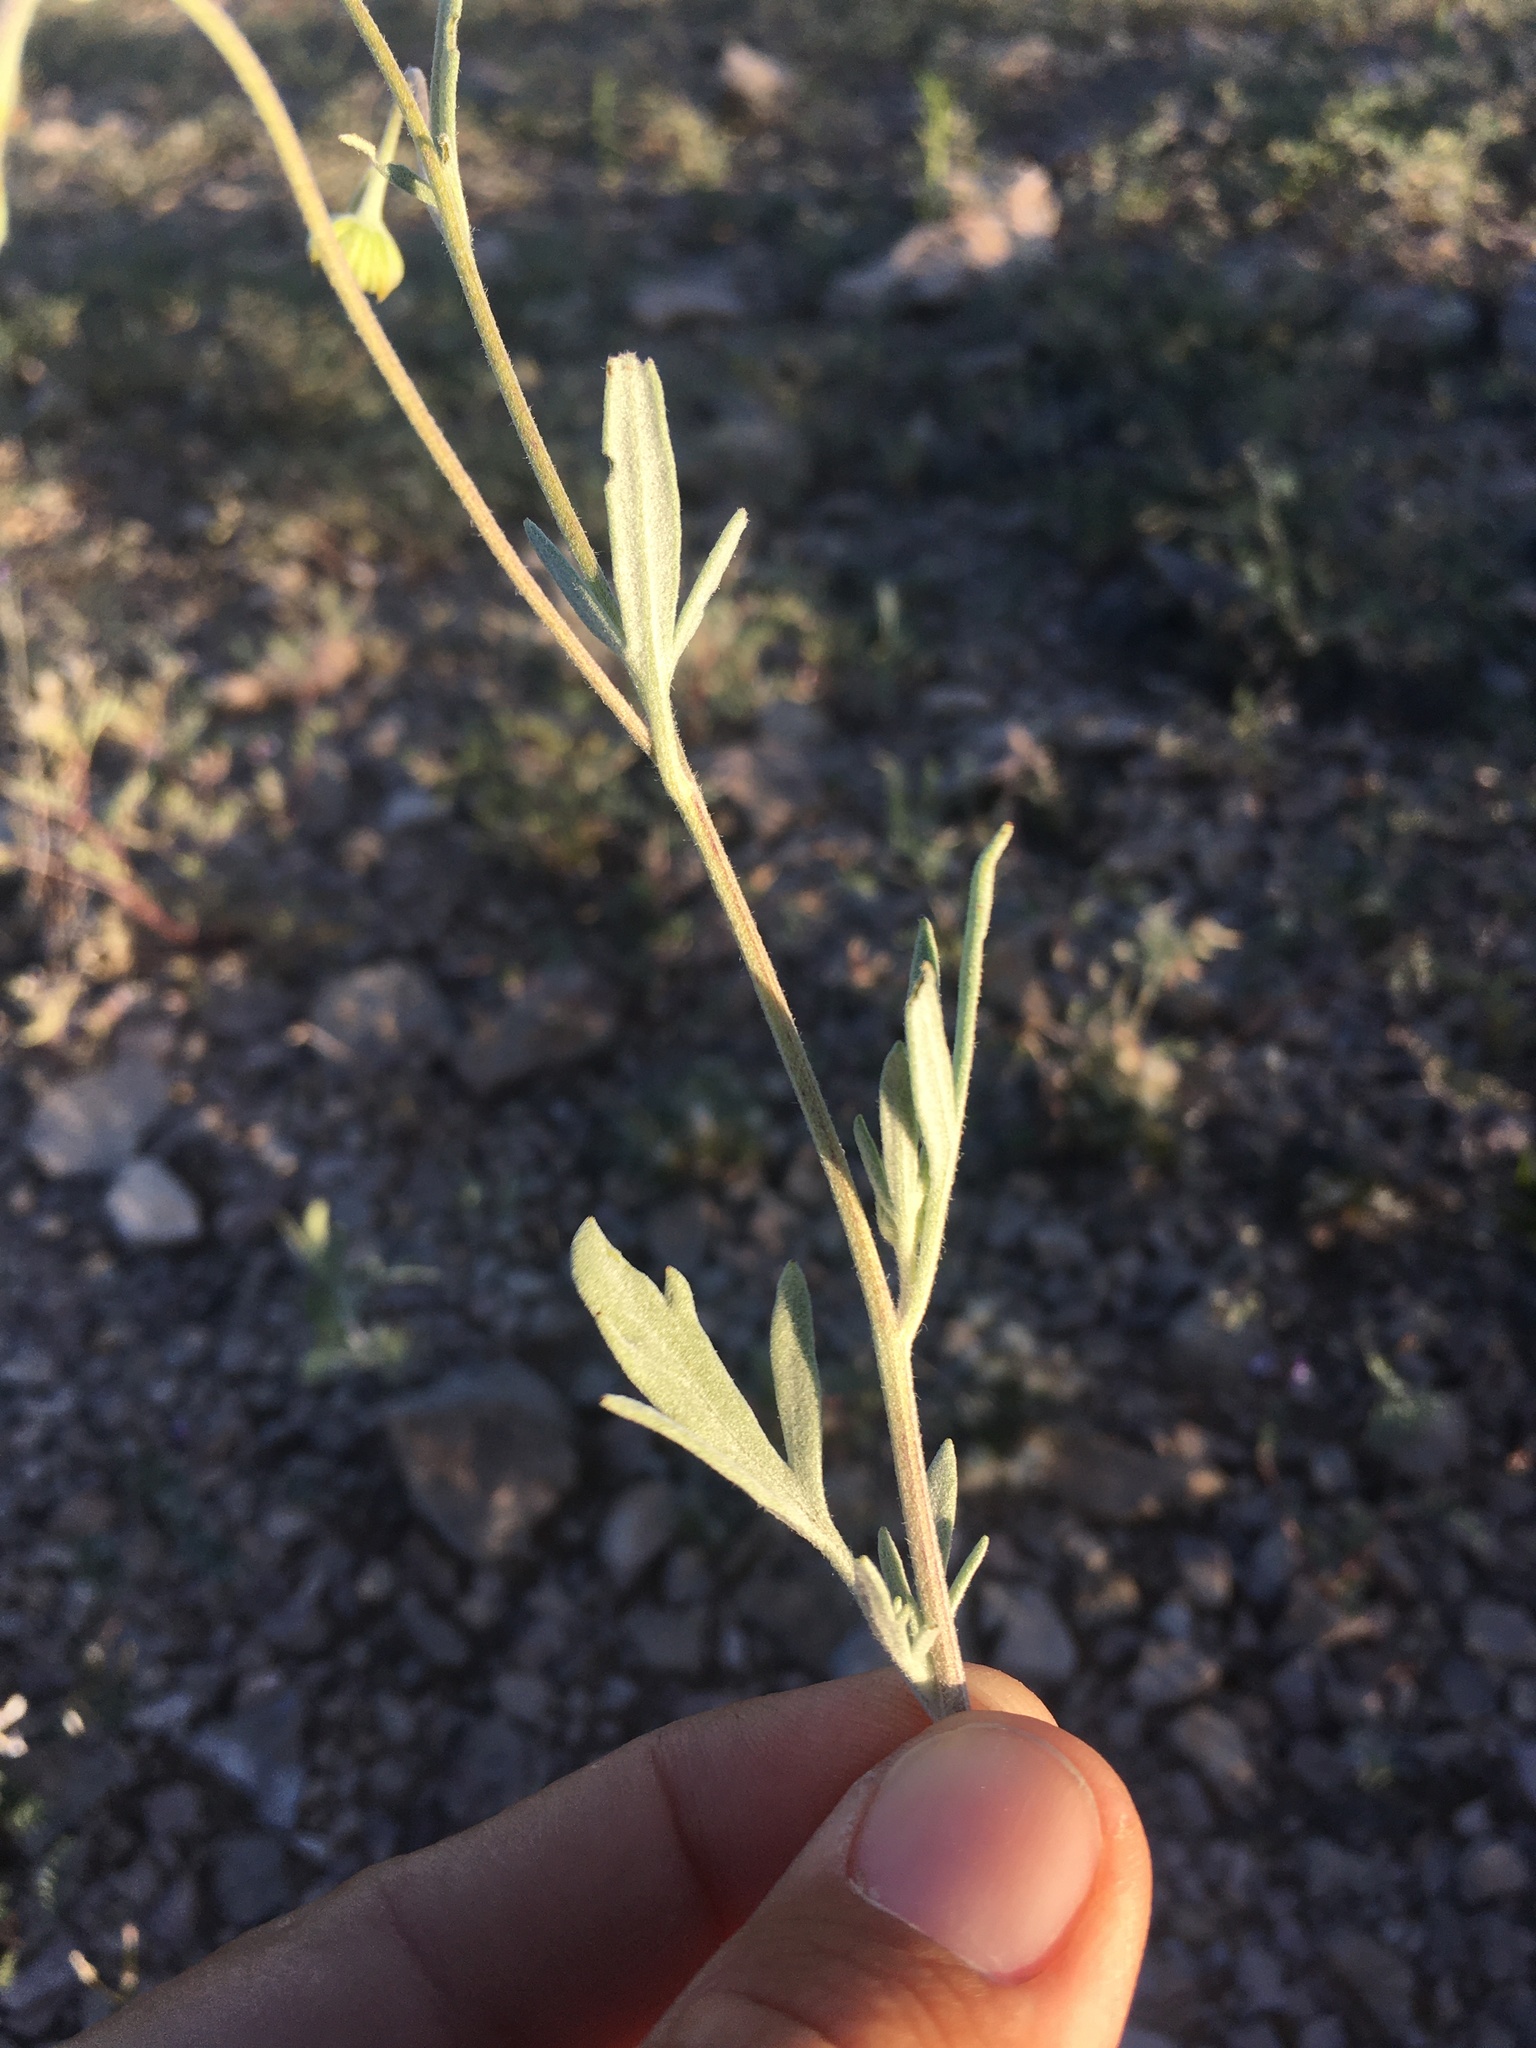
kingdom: Plantae
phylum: Tracheophyta
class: Magnoliopsida
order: Asterales
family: Asteraceae
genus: Picradeniopsis
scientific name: Picradeniopsis absinthifolia
